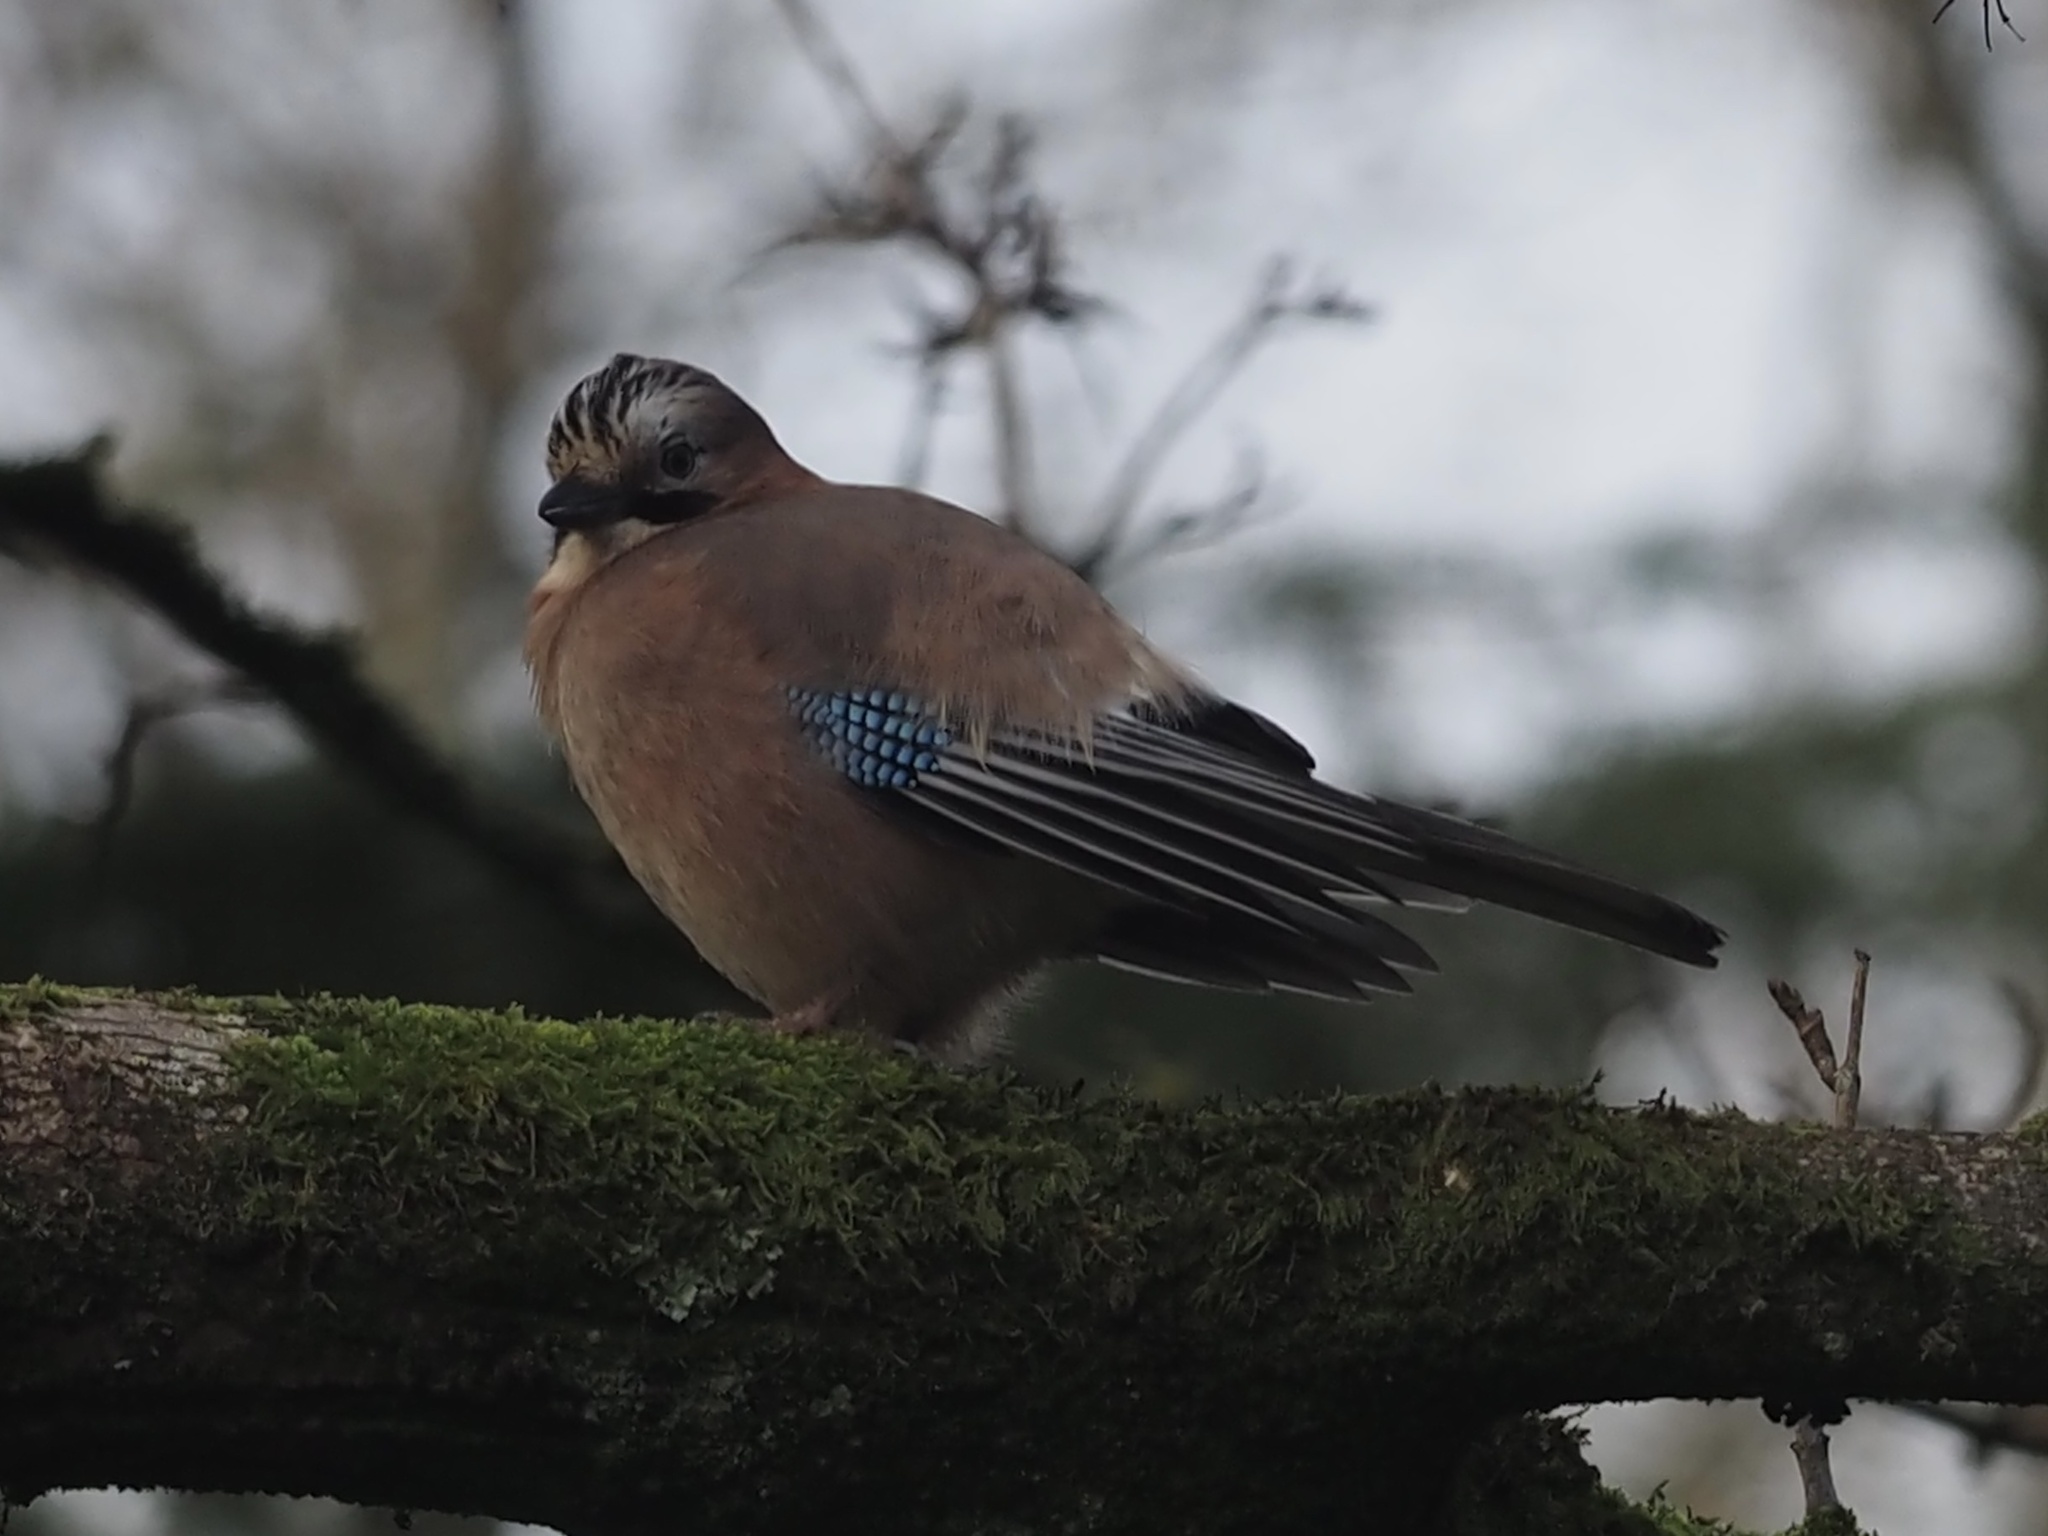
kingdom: Animalia
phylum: Chordata
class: Aves
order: Passeriformes
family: Corvidae
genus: Garrulus
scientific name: Garrulus glandarius
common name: Eurasian jay
